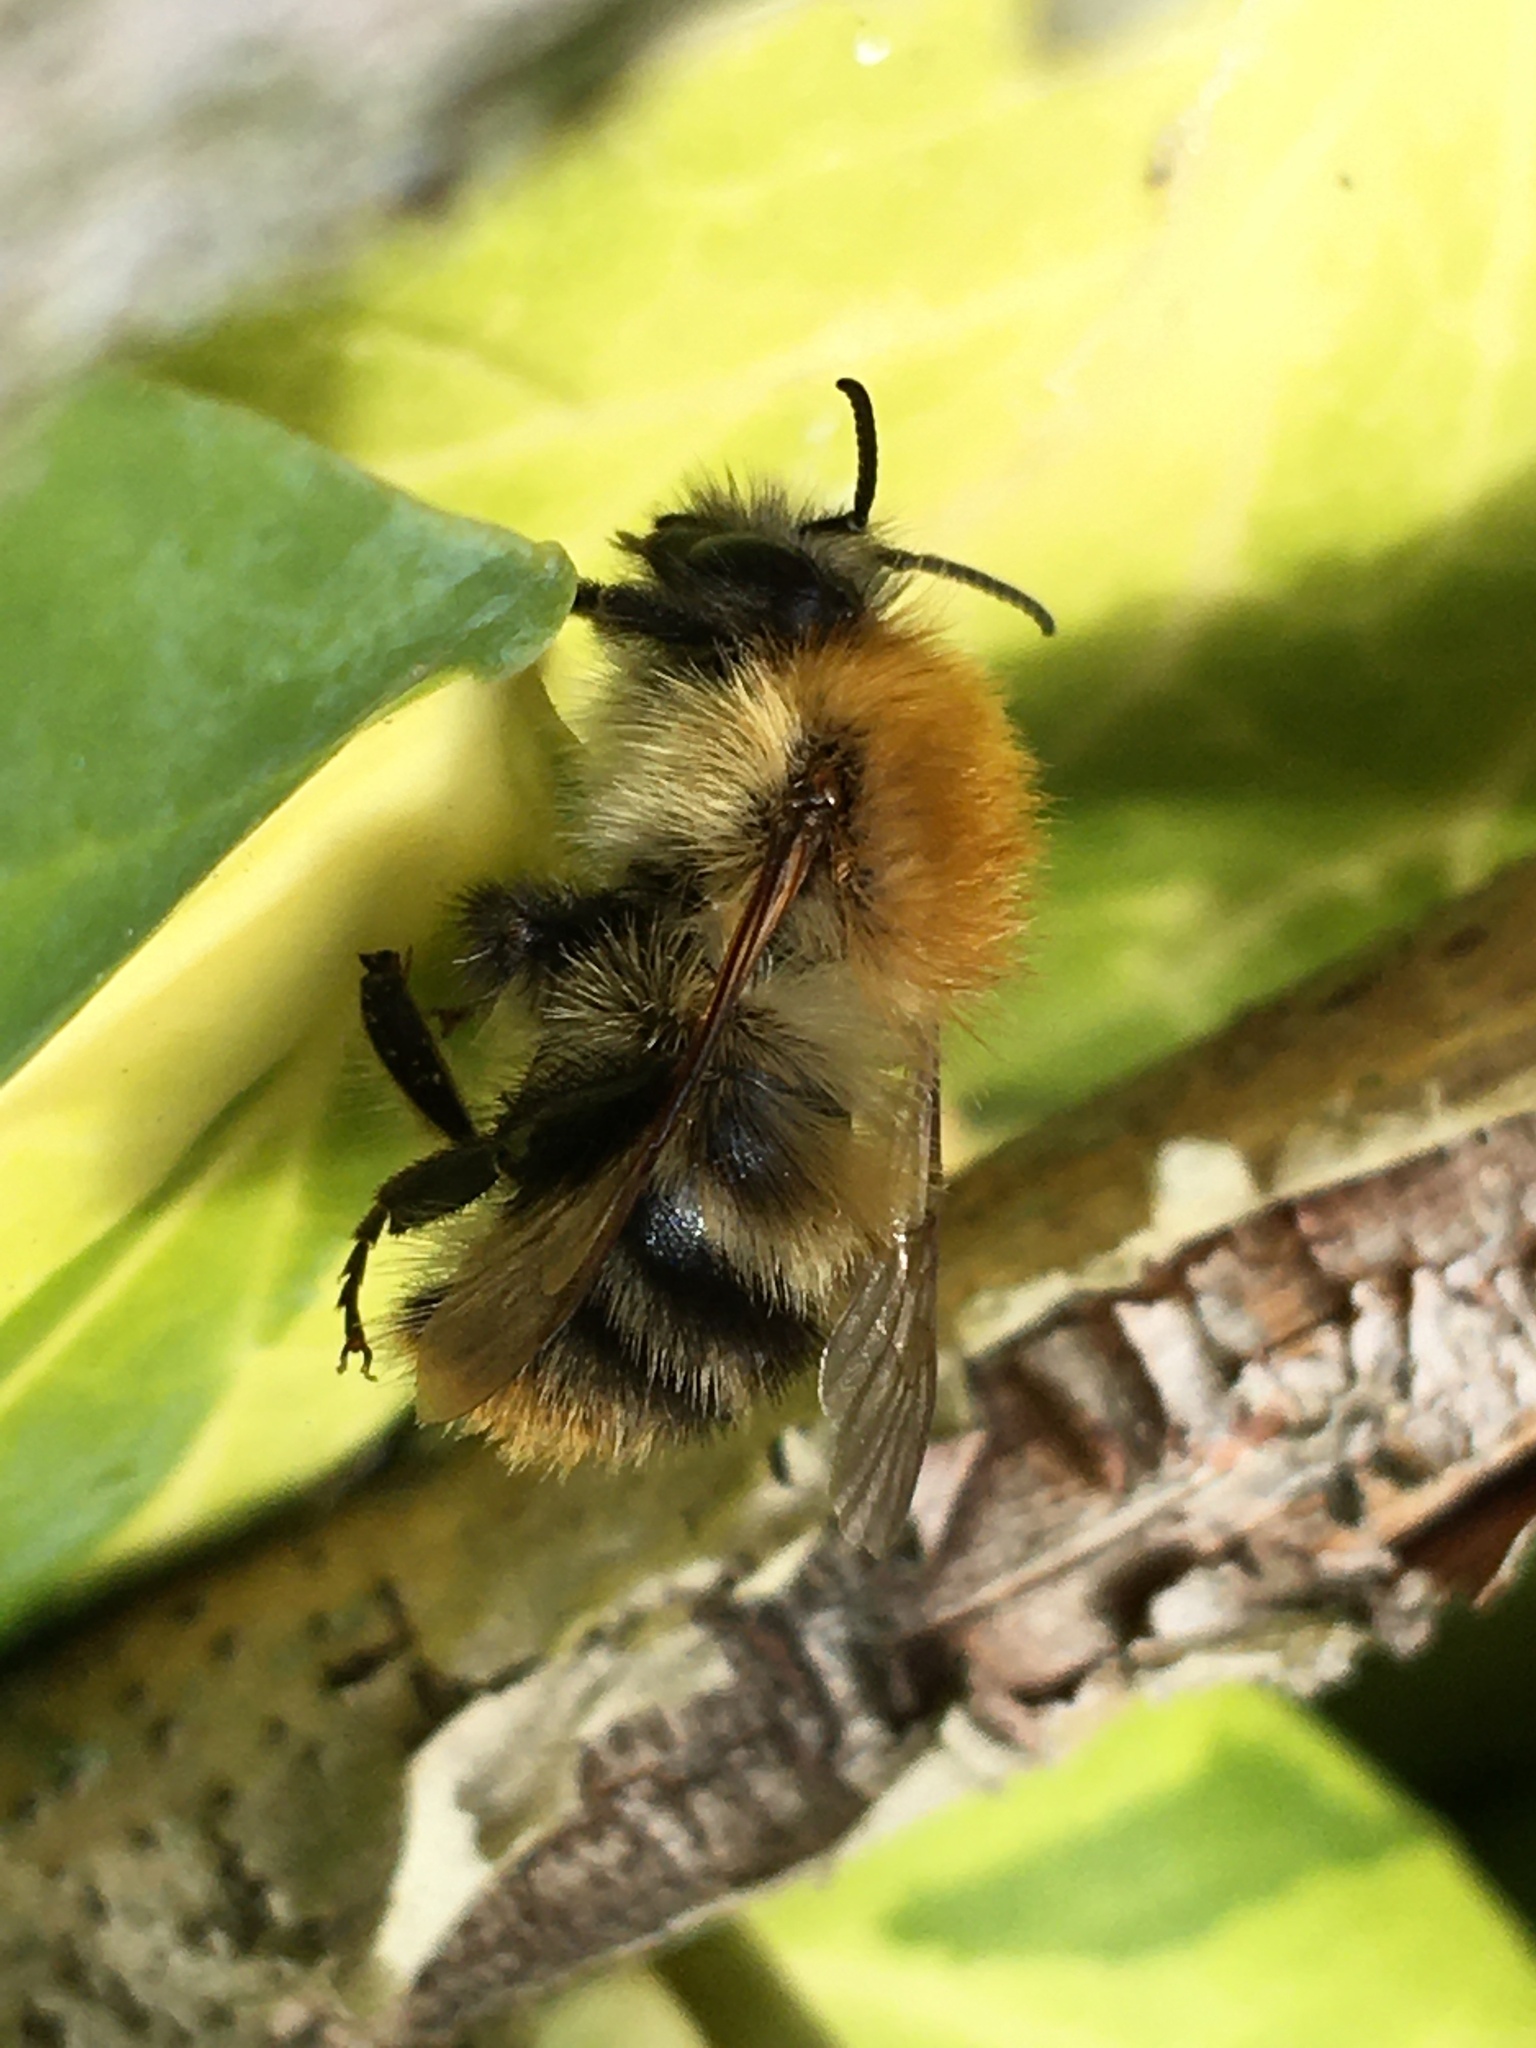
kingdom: Animalia
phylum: Arthropoda
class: Insecta
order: Hymenoptera
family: Apidae
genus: Bombus
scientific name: Bombus pascuorum
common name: Common carder bee
